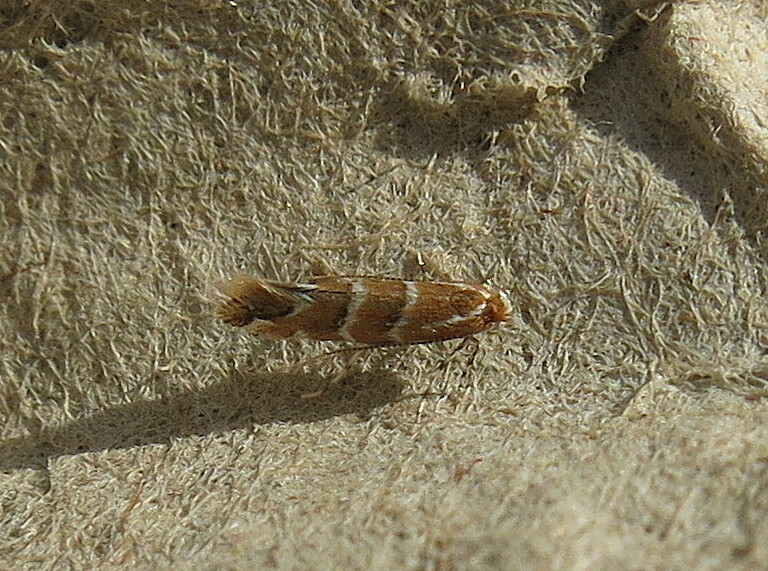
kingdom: Animalia
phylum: Arthropoda
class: Insecta
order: Lepidoptera
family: Gracillariidae
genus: Cameraria
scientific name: Cameraria ohridella
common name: Horse-chestnut leaf-miner
